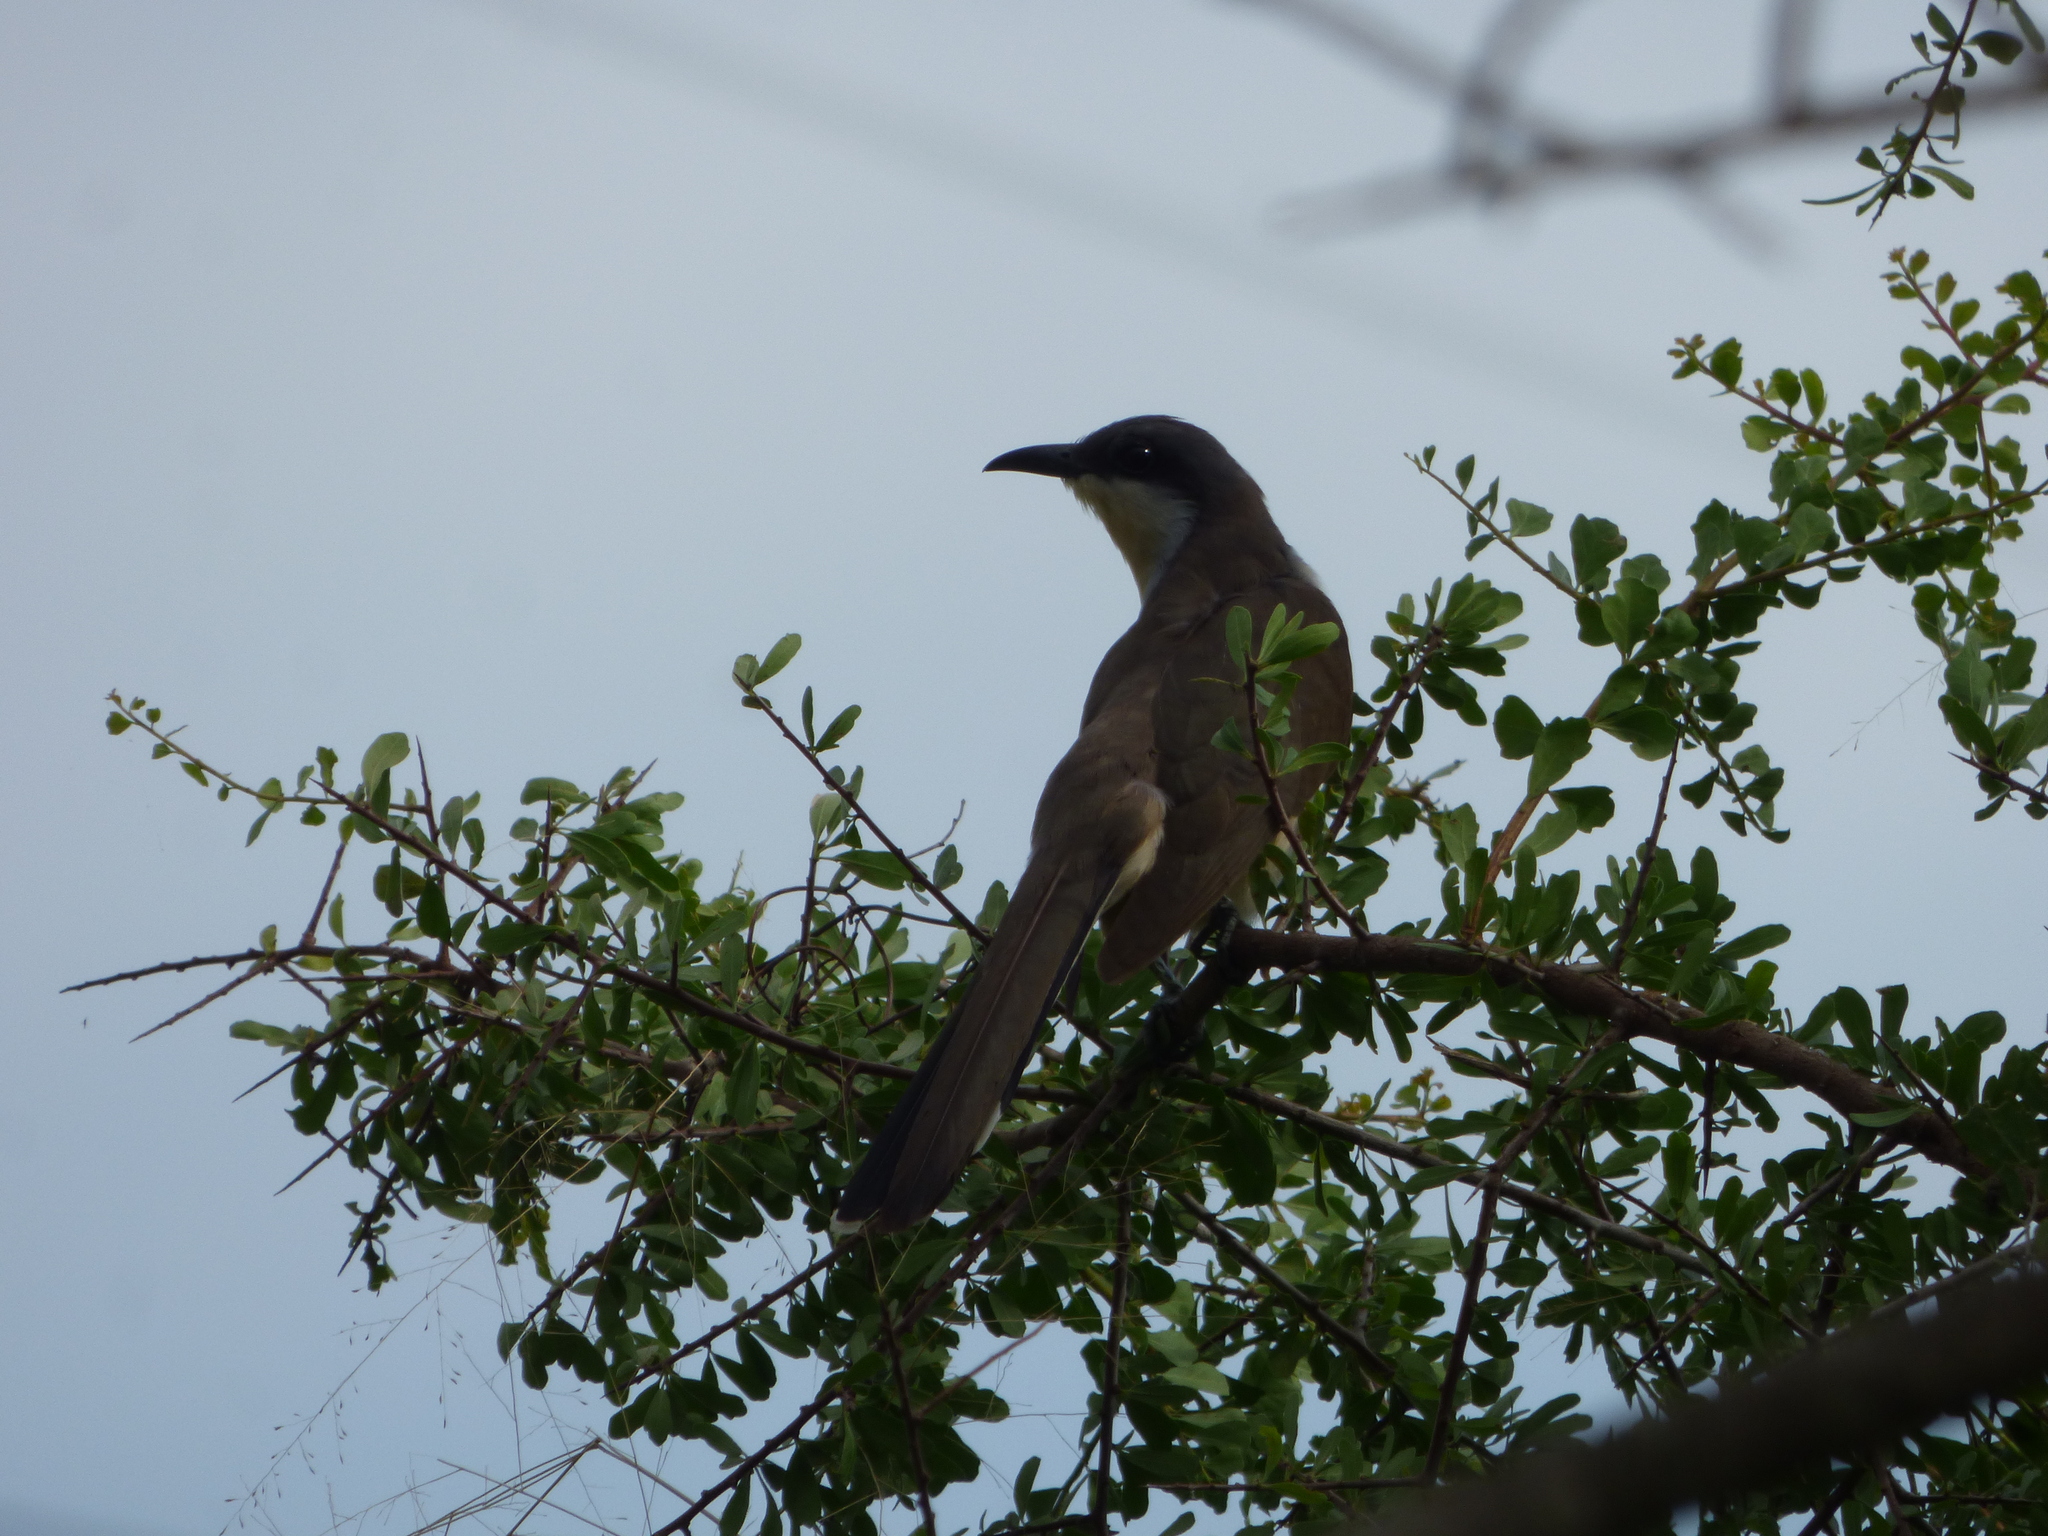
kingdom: Animalia
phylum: Chordata
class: Aves
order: Cuculiformes
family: Cuculidae
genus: Coccyzus
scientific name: Coccyzus melacoryphus
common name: Dark-billed cuckoo
